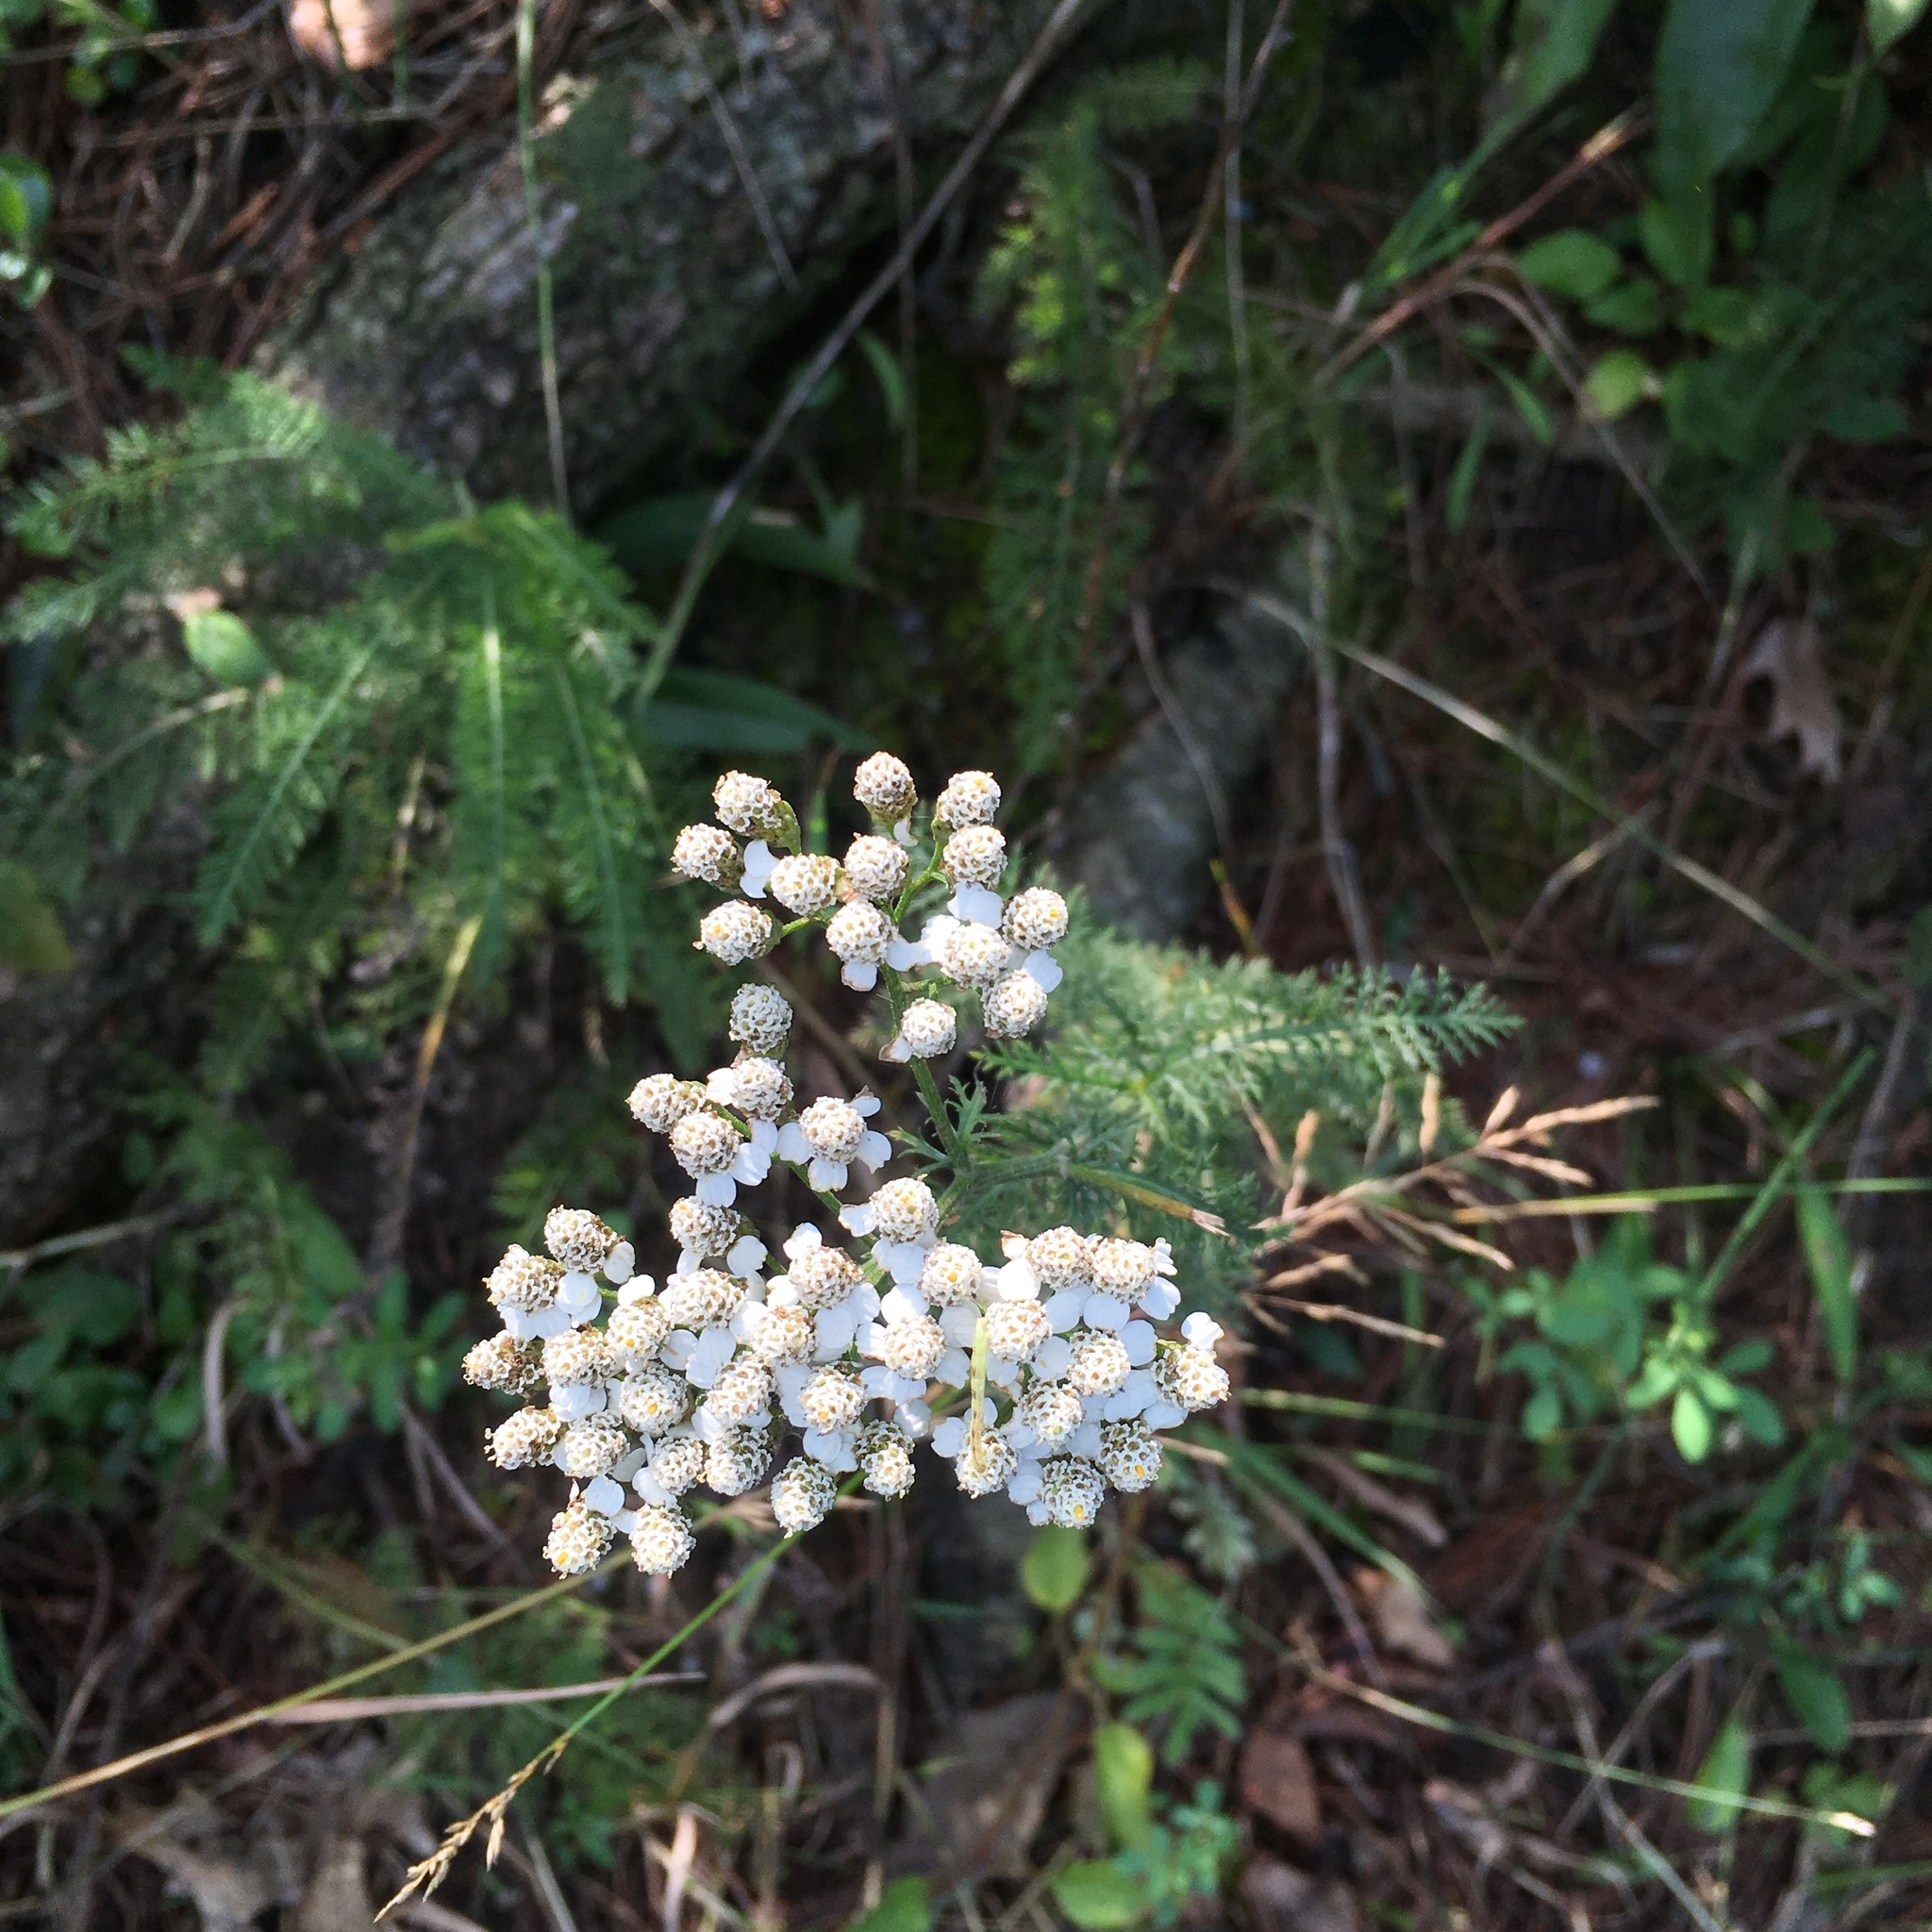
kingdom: Plantae
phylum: Tracheophyta
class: Magnoliopsida
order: Asterales
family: Asteraceae
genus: Achillea
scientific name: Achillea millefolium
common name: Yarrow
